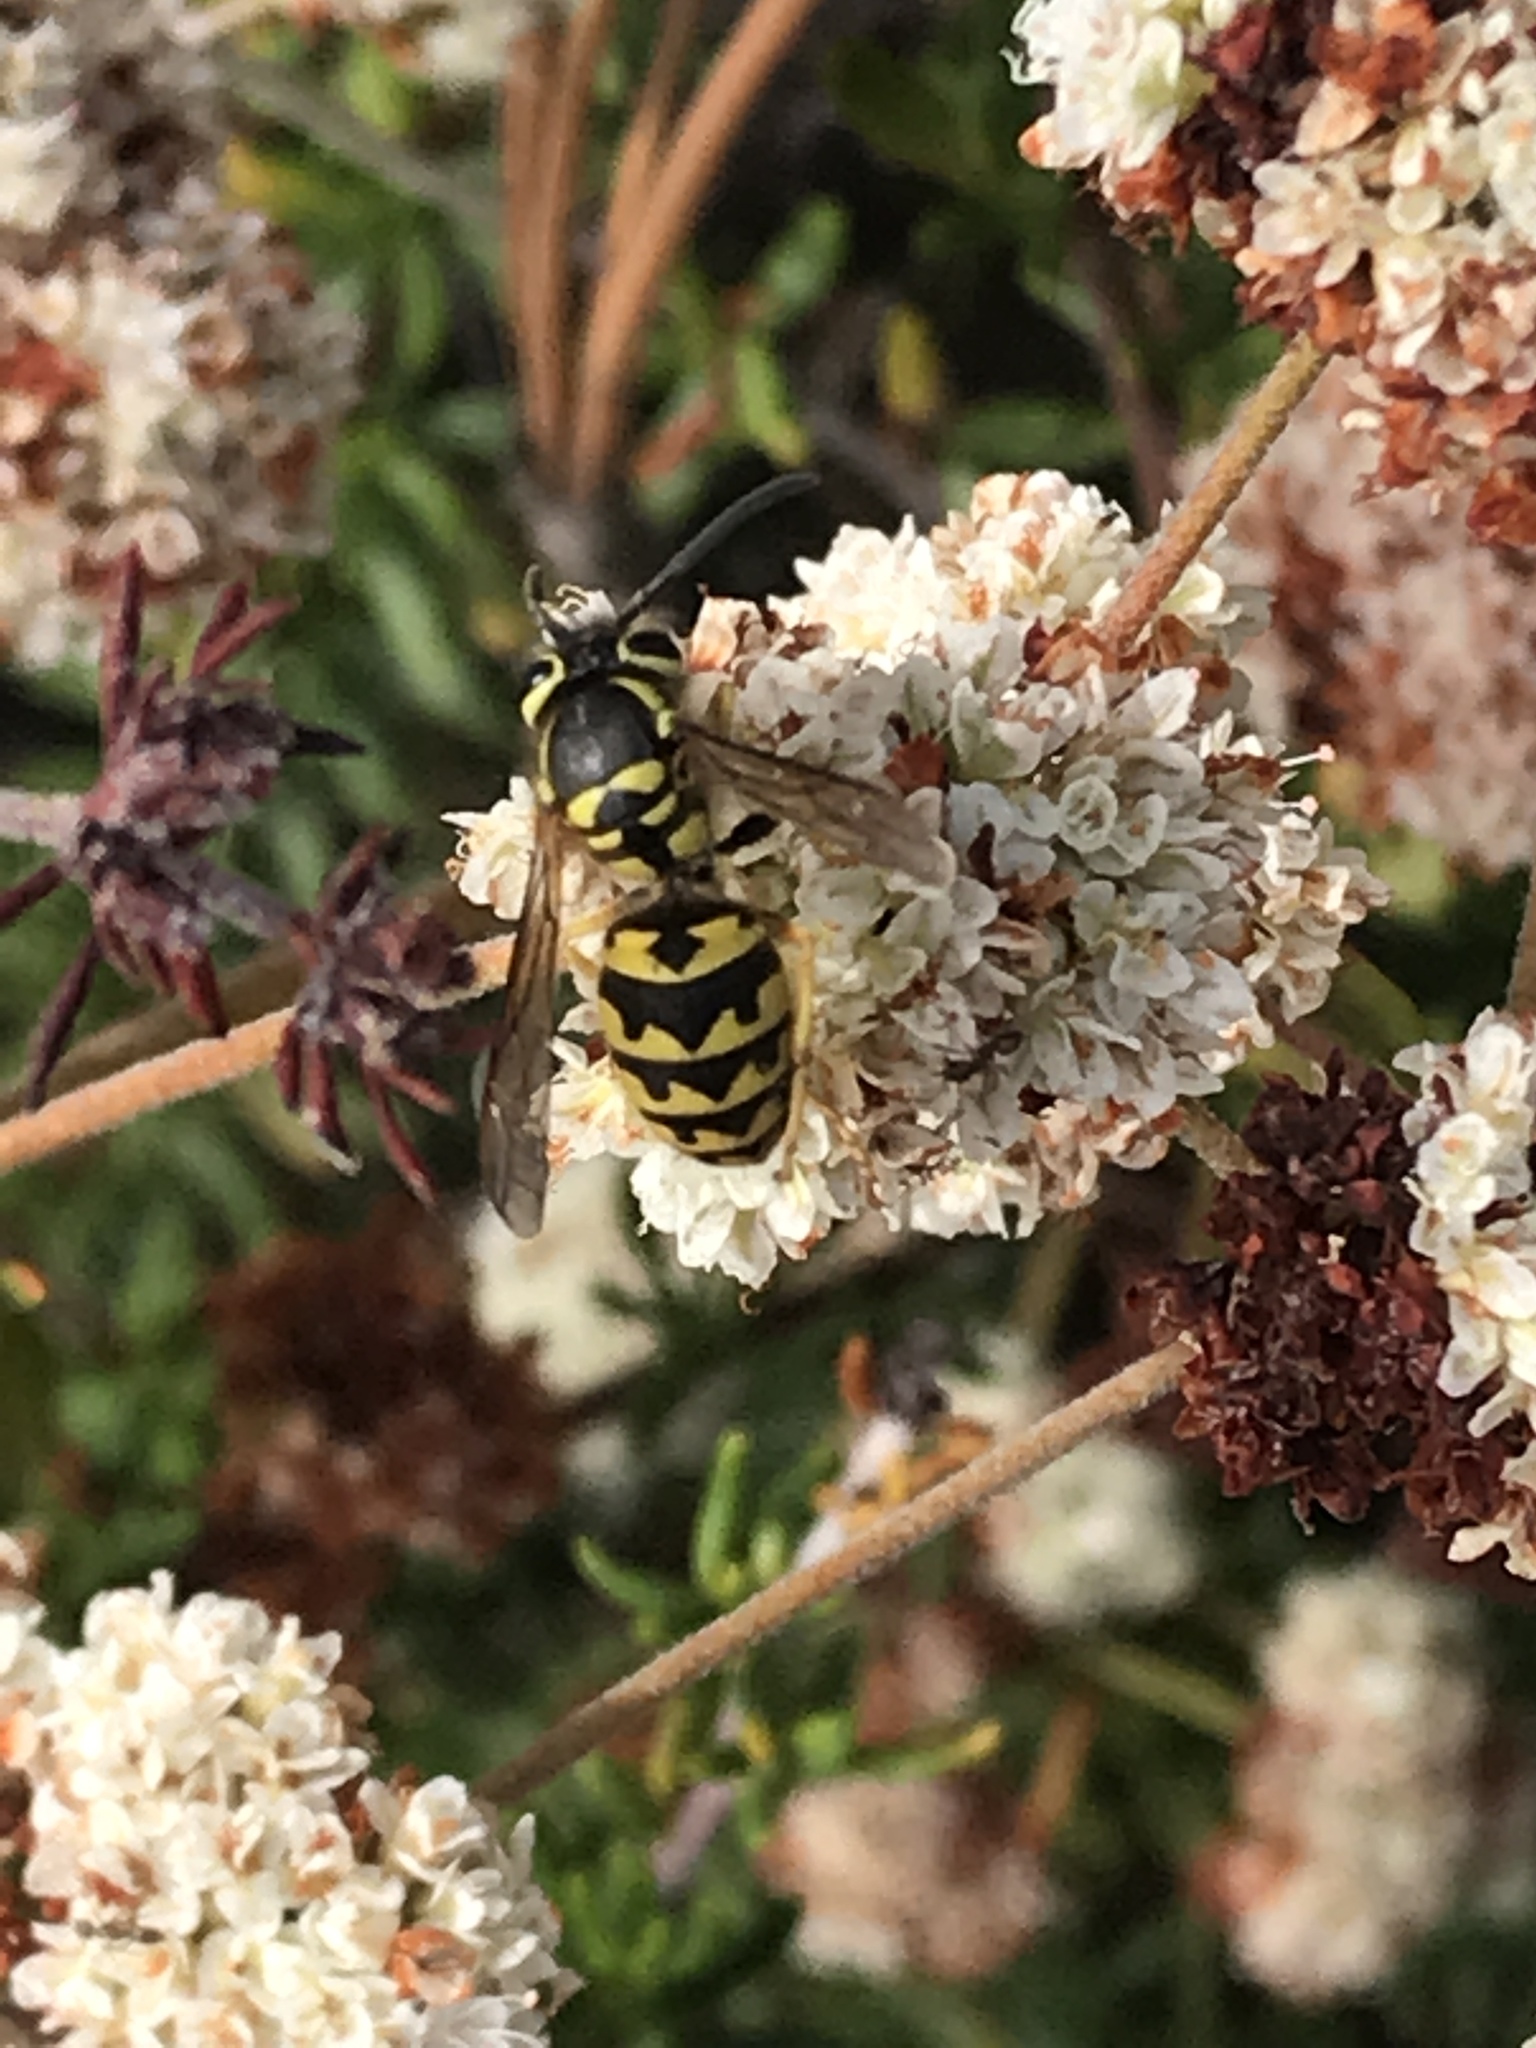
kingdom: Animalia
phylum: Arthropoda
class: Insecta
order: Hymenoptera
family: Vespidae
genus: Vespula
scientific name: Vespula pensylvanica
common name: Western yellowjacket
